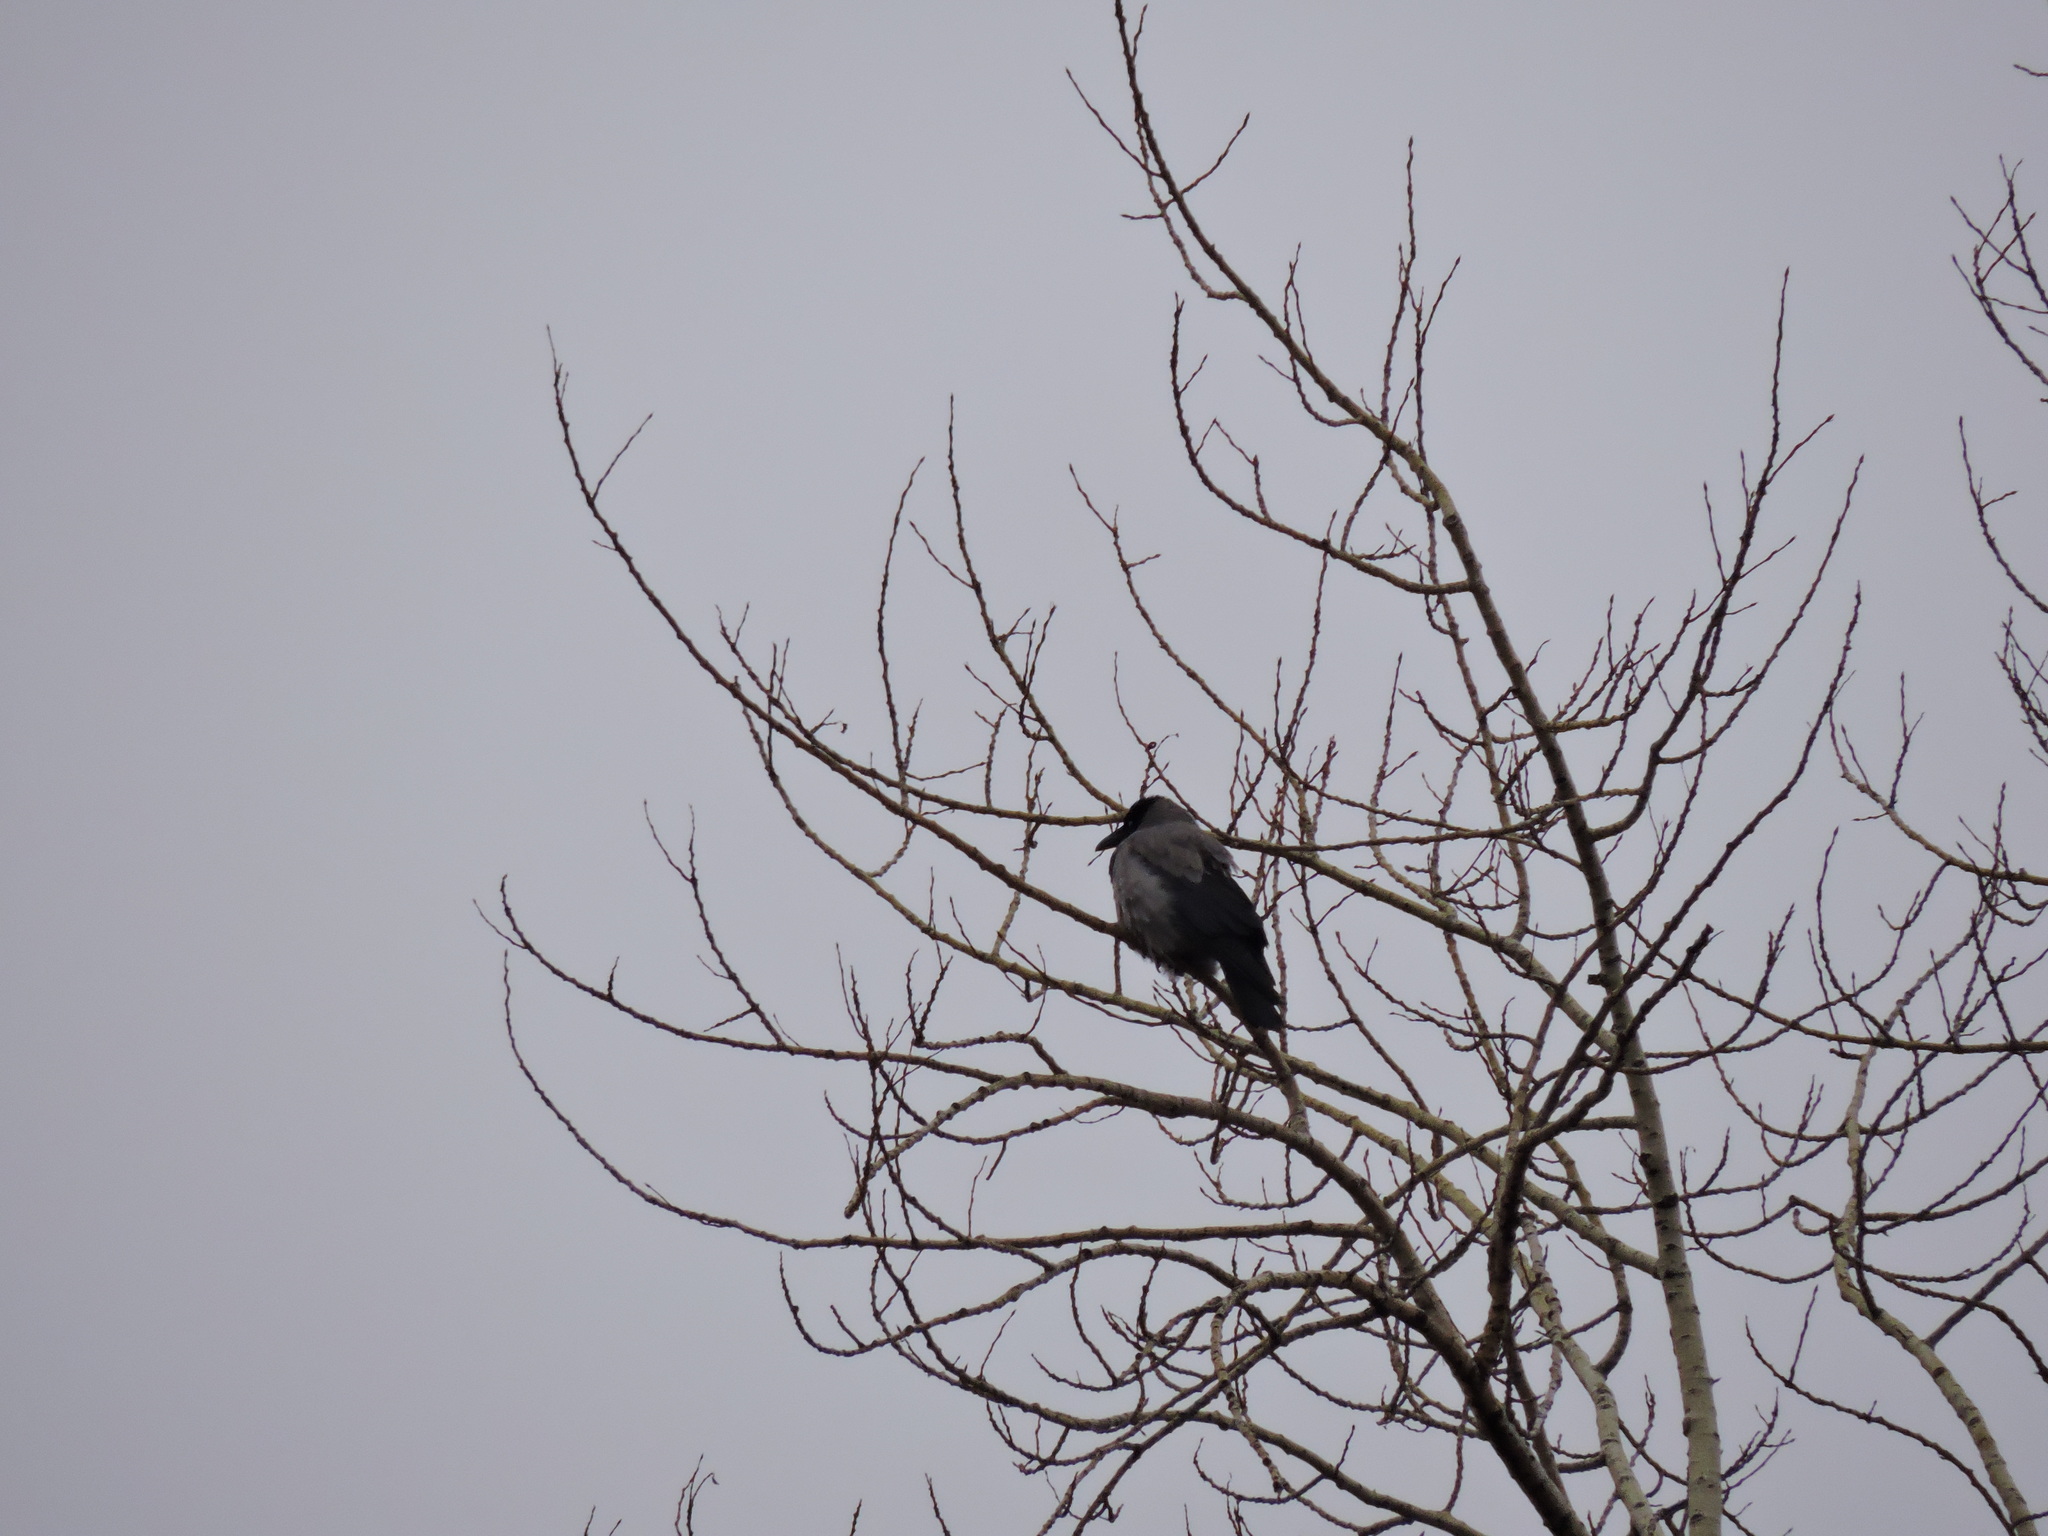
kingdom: Animalia
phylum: Chordata
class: Aves
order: Passeriformes
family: Corvidae
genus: Corvus
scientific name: Corvus cornix
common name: Hooded crow
